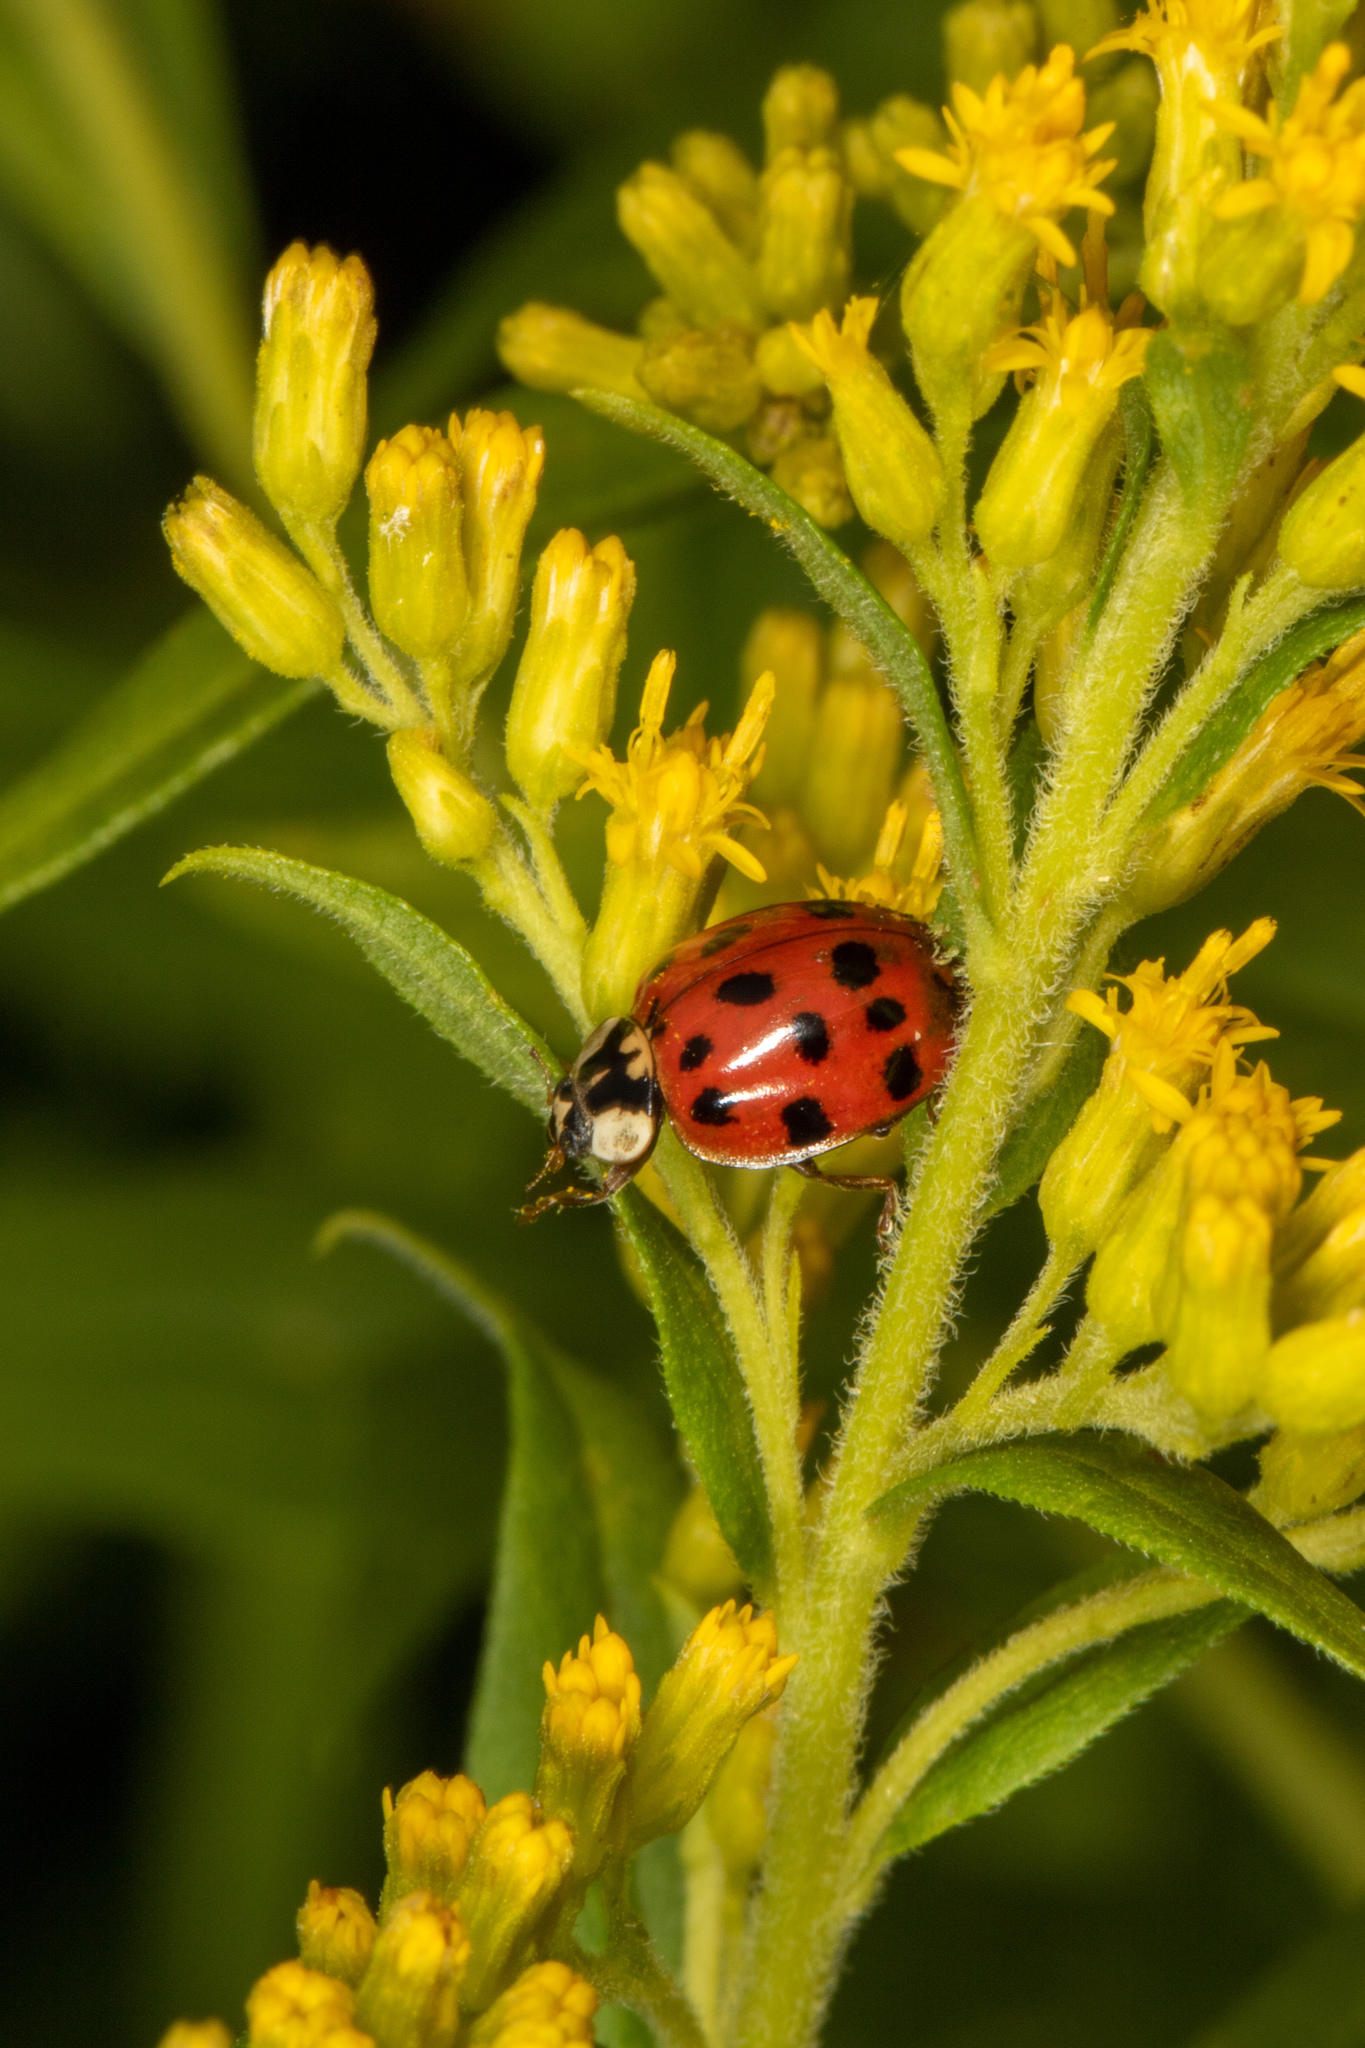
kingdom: Animalia
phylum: Arthropoda
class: Insecta
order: Coleoptera
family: Coccinellidae
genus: Harmonia
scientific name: Harmonia axyridis
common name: Harlequin ladybird
